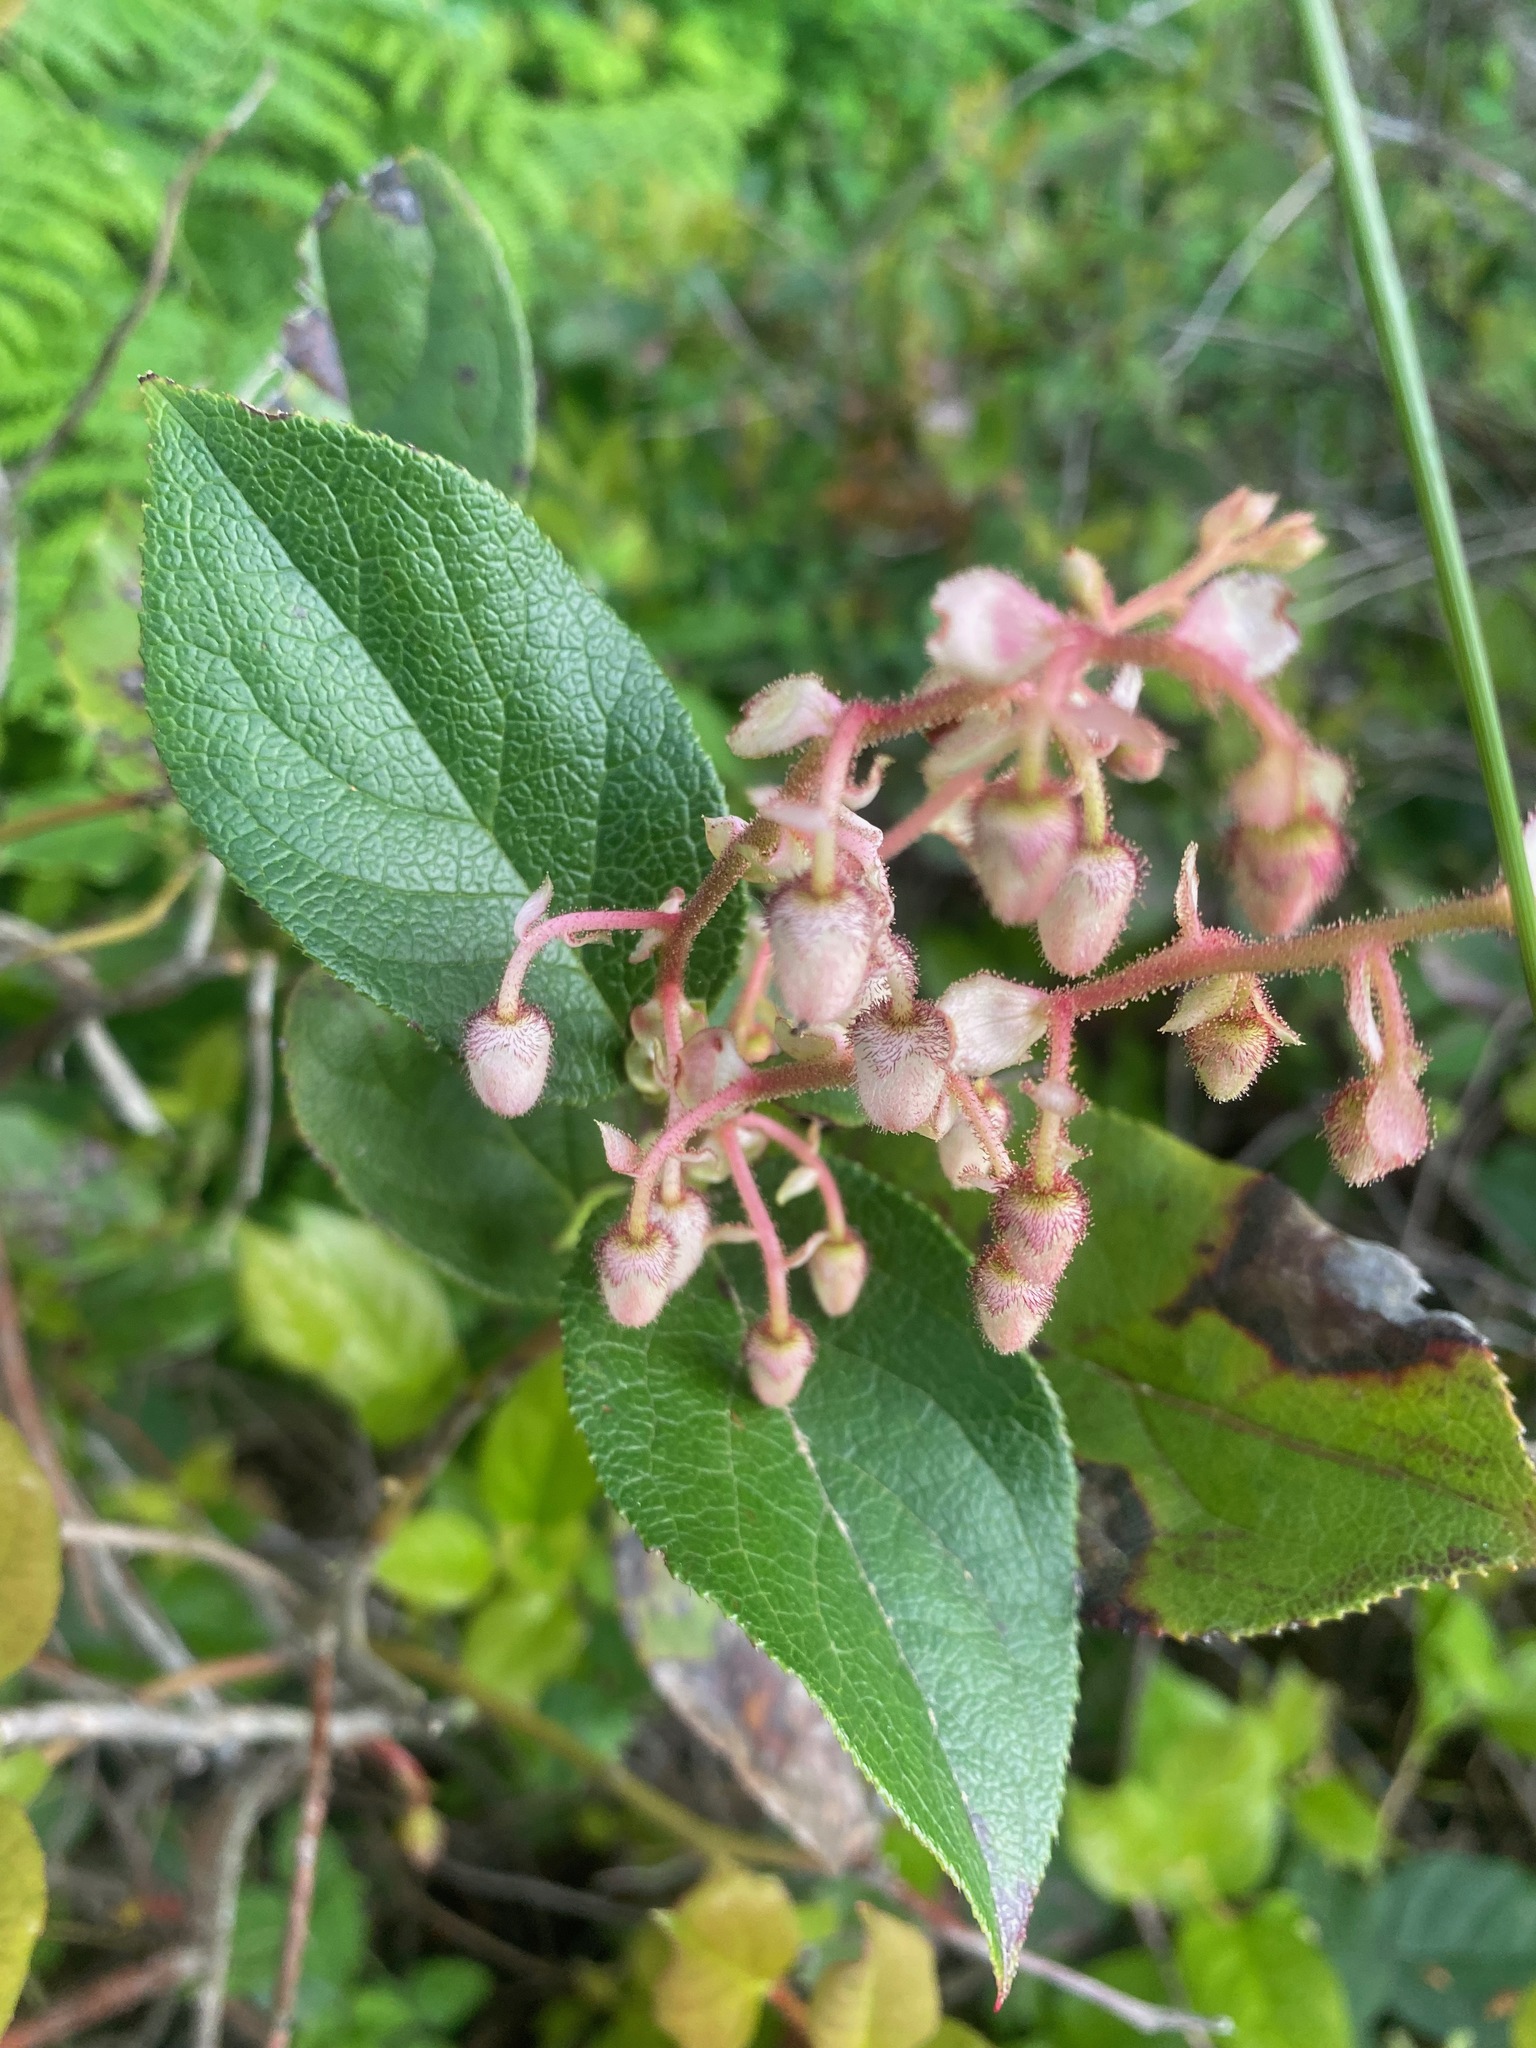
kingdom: Plantae
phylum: Tracheophyta
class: Magnoliopsida
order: Ericales
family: Ericaceae
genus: Gaultheria
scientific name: Gaultheria shallon
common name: Shallon
